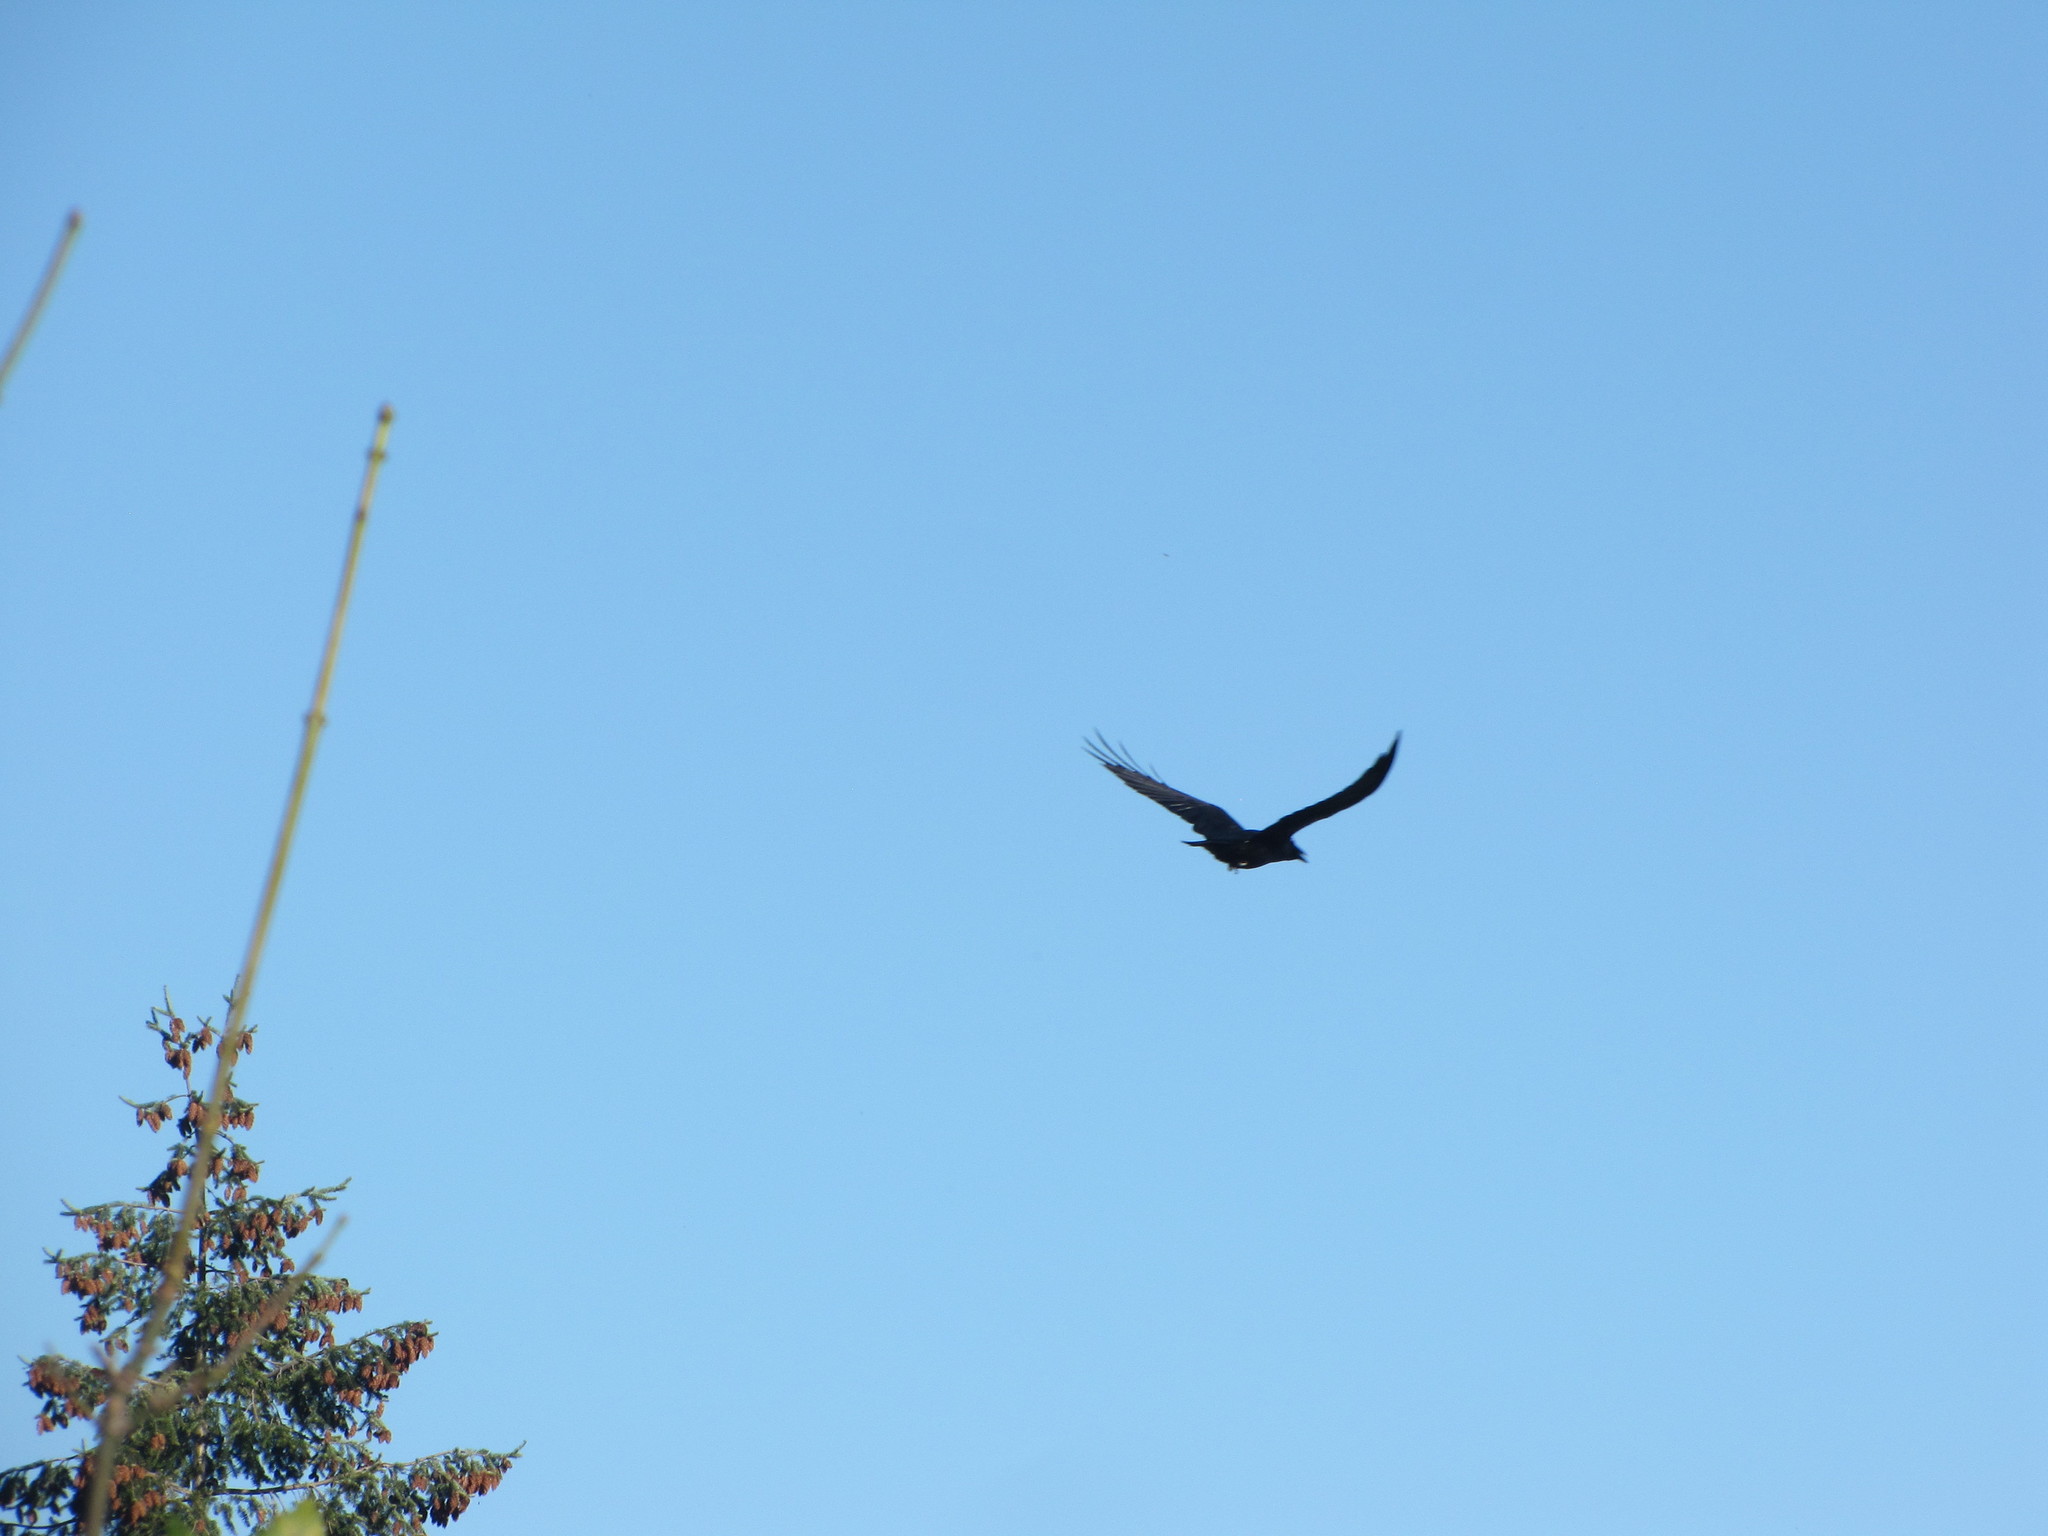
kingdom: Animalia
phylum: Chordata
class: Aves
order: Passeriformes
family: Corvidae
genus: Corvus
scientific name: Corvus corax
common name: Common raven
